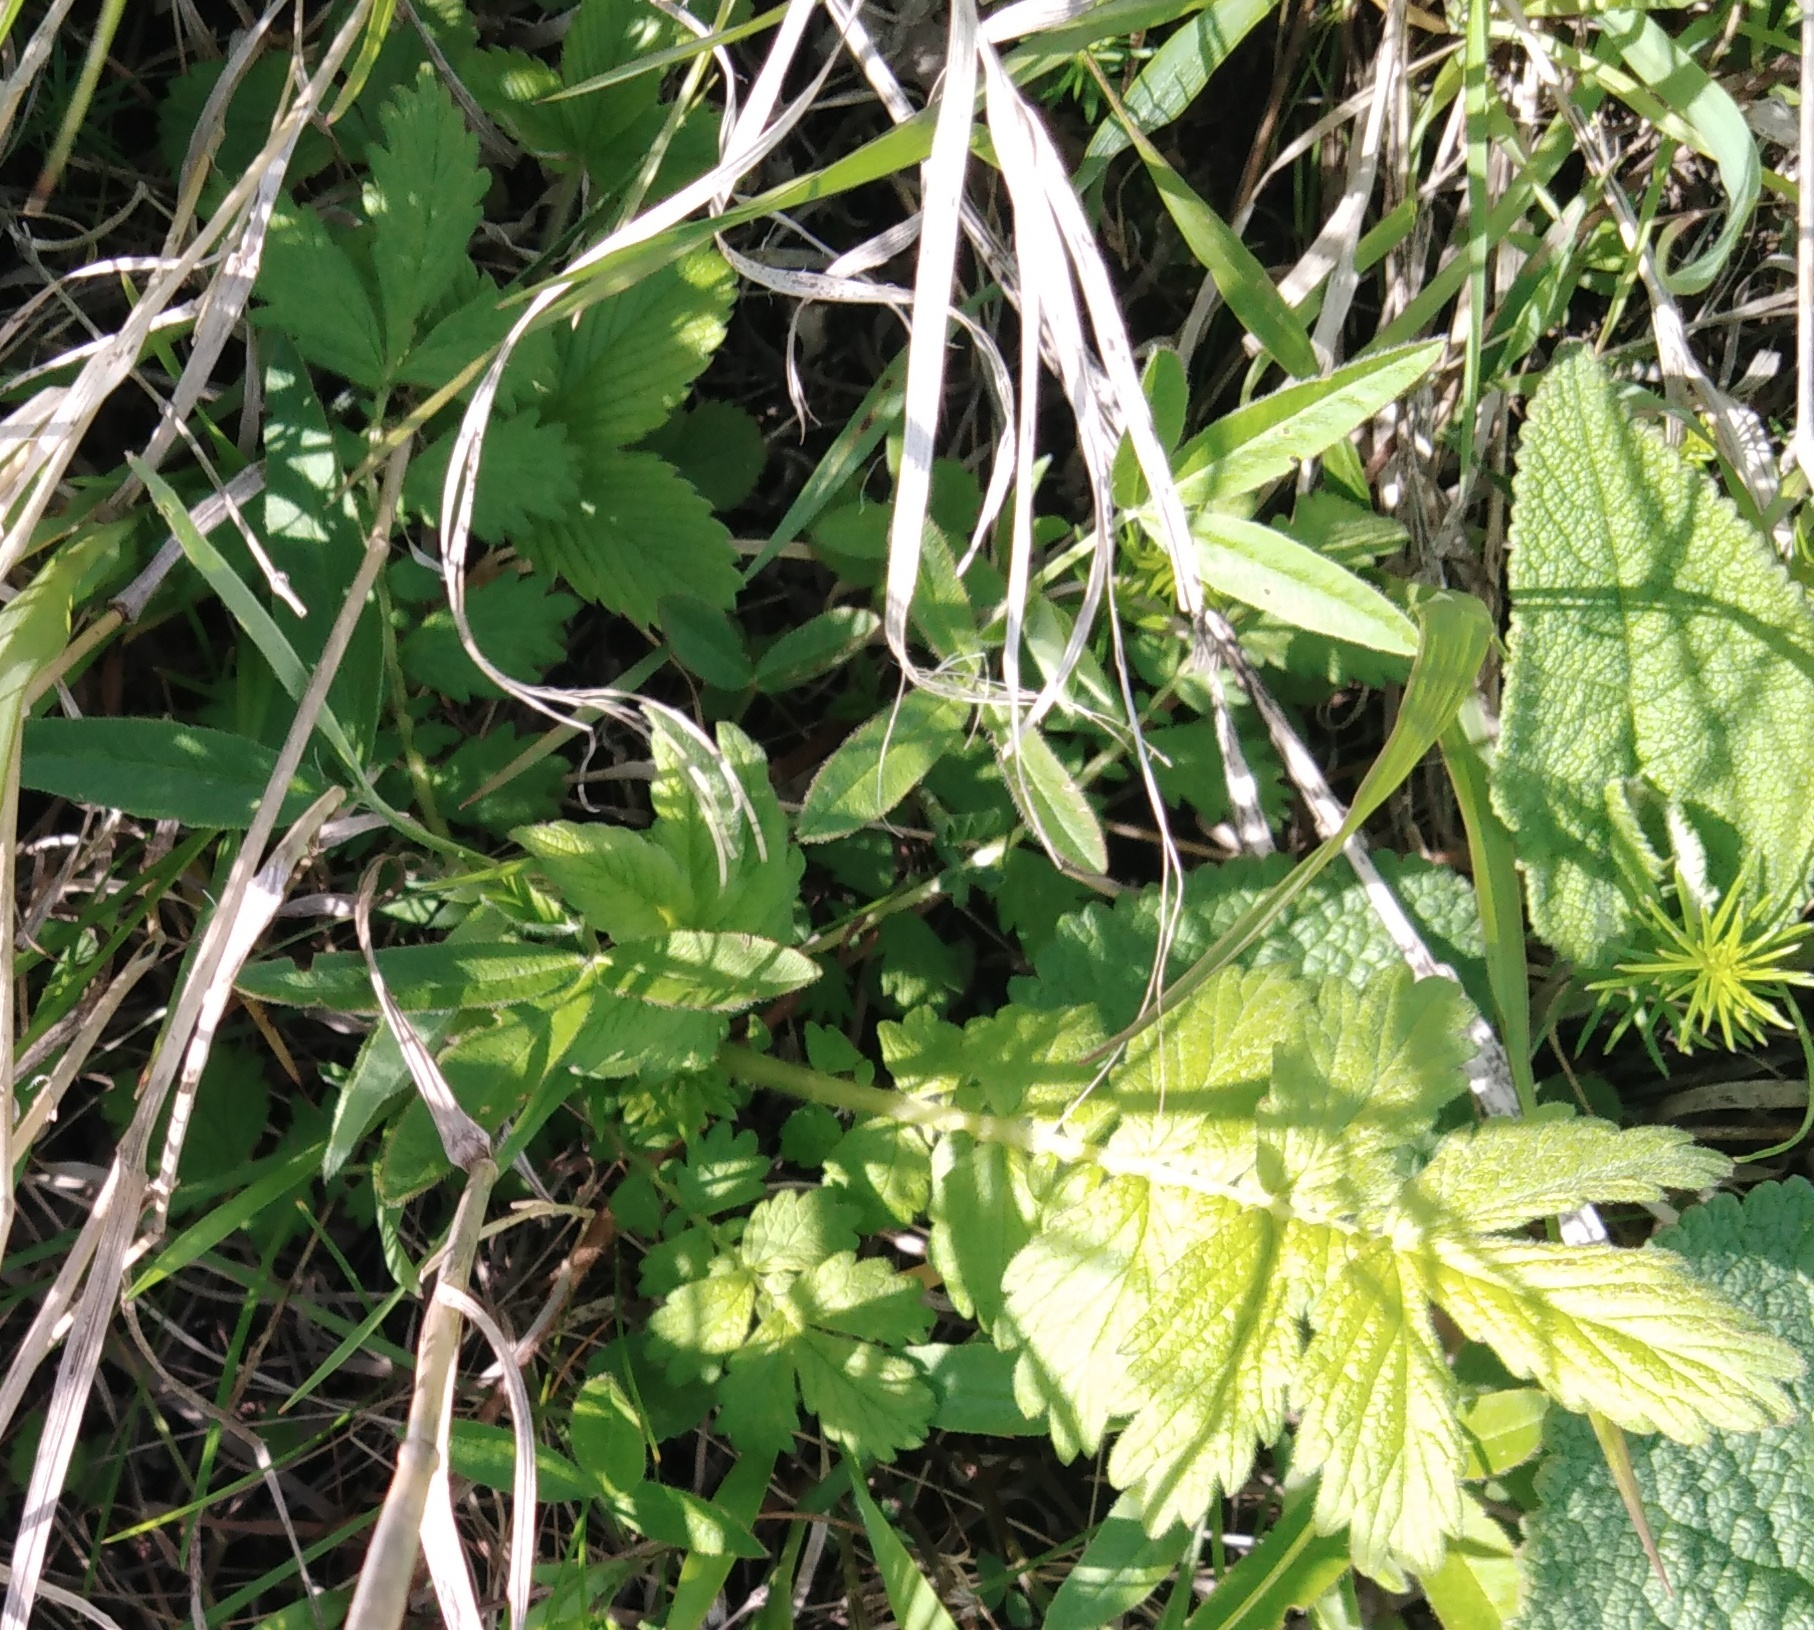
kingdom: Plantae
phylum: Tracheophyta
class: Magnoliopsida
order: Rosales
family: Rosaceae
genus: Agrimonia
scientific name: Agrimonia eupatoria
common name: Agrimony
